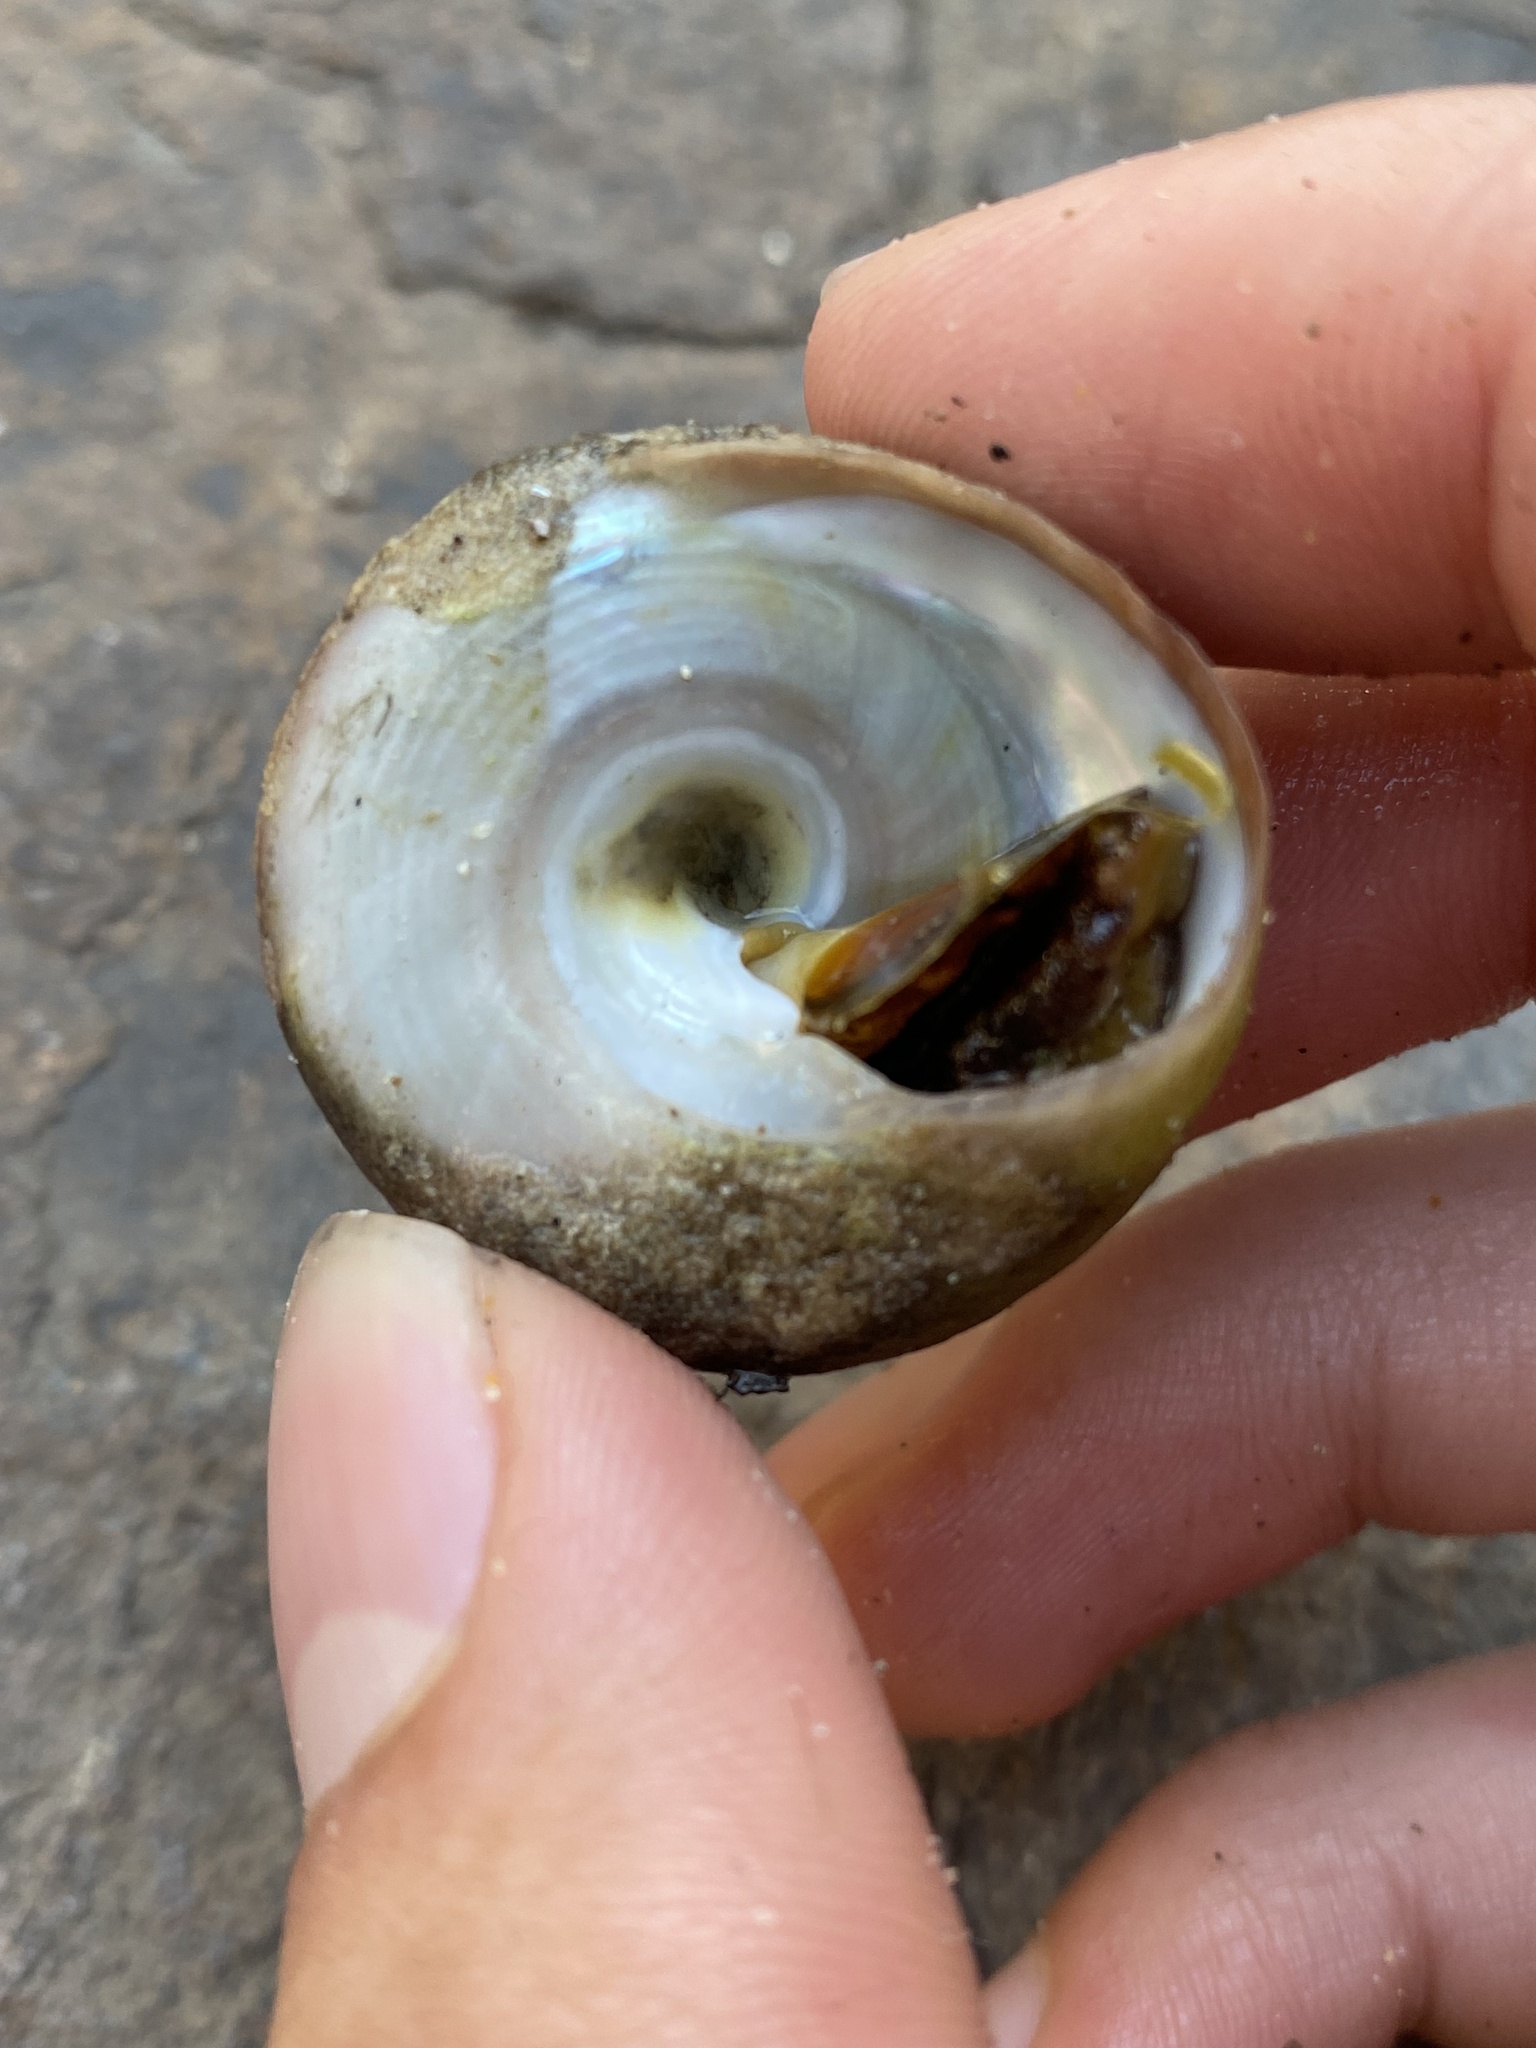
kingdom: Animalia
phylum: Mollusca
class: Gastropoda
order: Trochida
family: Tegulidae
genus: Tegula
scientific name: Tegula montereyi
